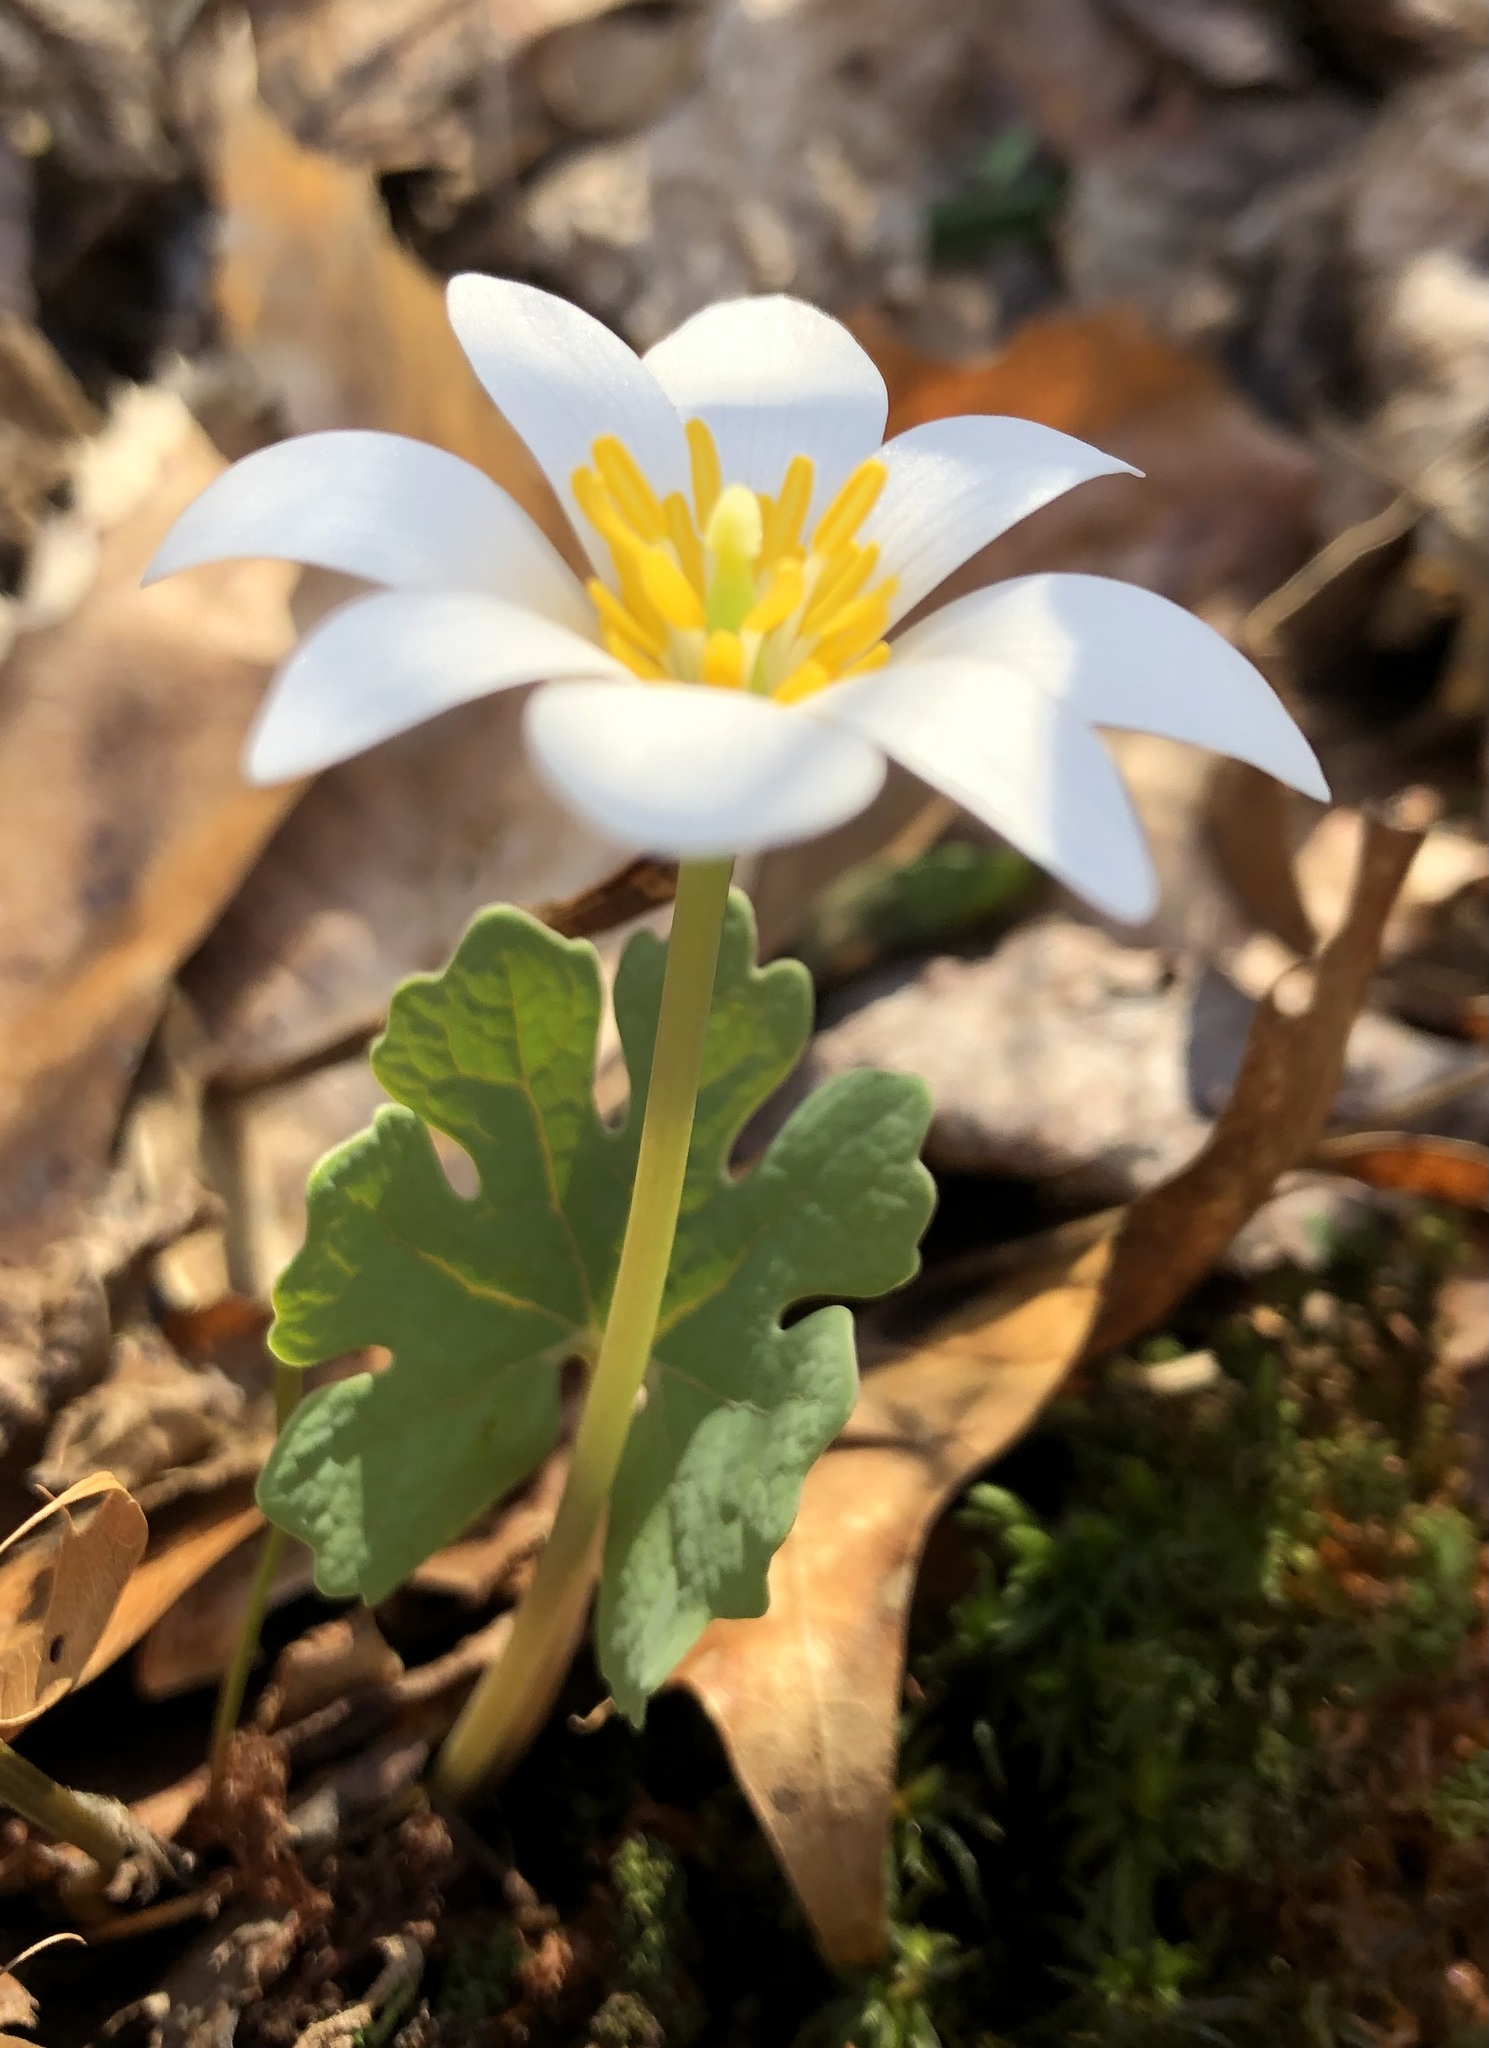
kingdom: Plantae
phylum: Tracheophyta
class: Magnoliopsida
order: Ranunculales
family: Papaveraceae
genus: Sanguinaria
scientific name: Sanguinaria canadensis
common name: Bloodroot
